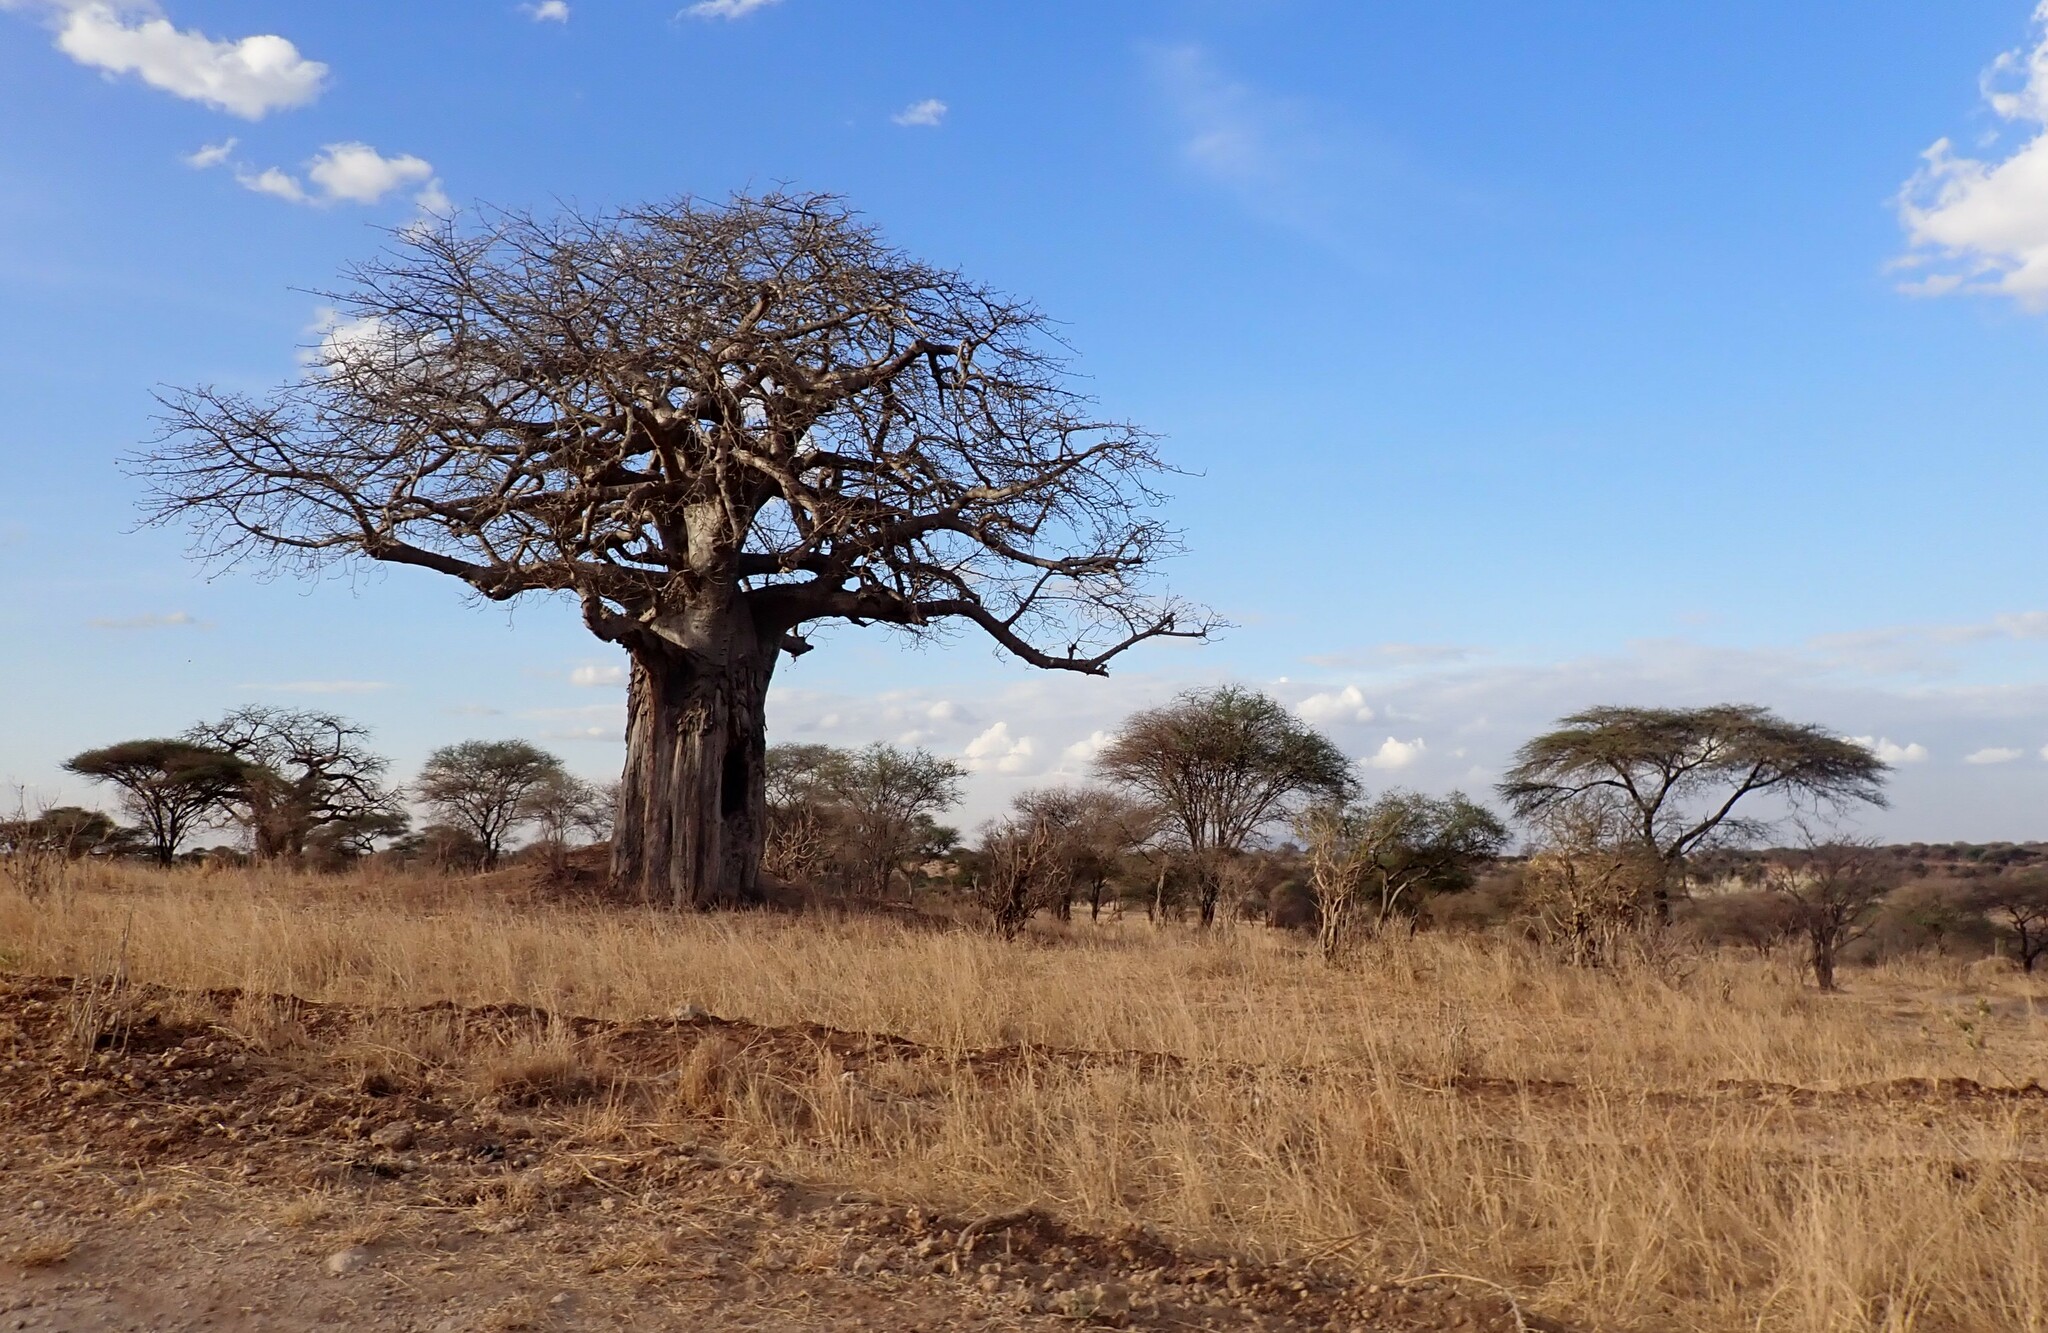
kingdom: Plantae
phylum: Tracheophyta
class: Magnoliopsida
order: Malvales
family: Malvaceae
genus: Adansonia
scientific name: Adansonia digitata
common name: Dead-rat-tree
